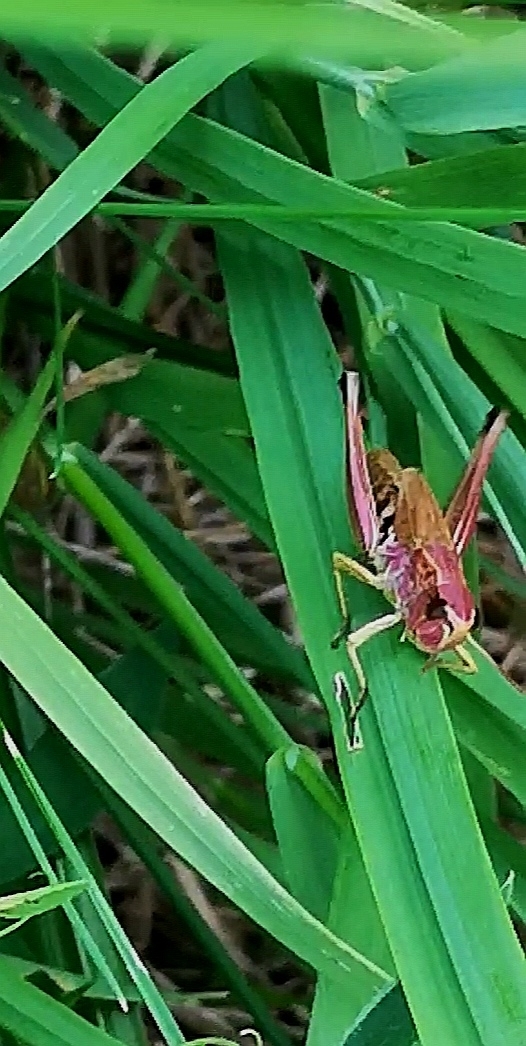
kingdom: Animalia
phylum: Arthropoda
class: Insecta
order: Orthoptera
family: Acrididae
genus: Pseudochorthippus
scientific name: Pseudochorthippus parallelus
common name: Meadow grasshopper
